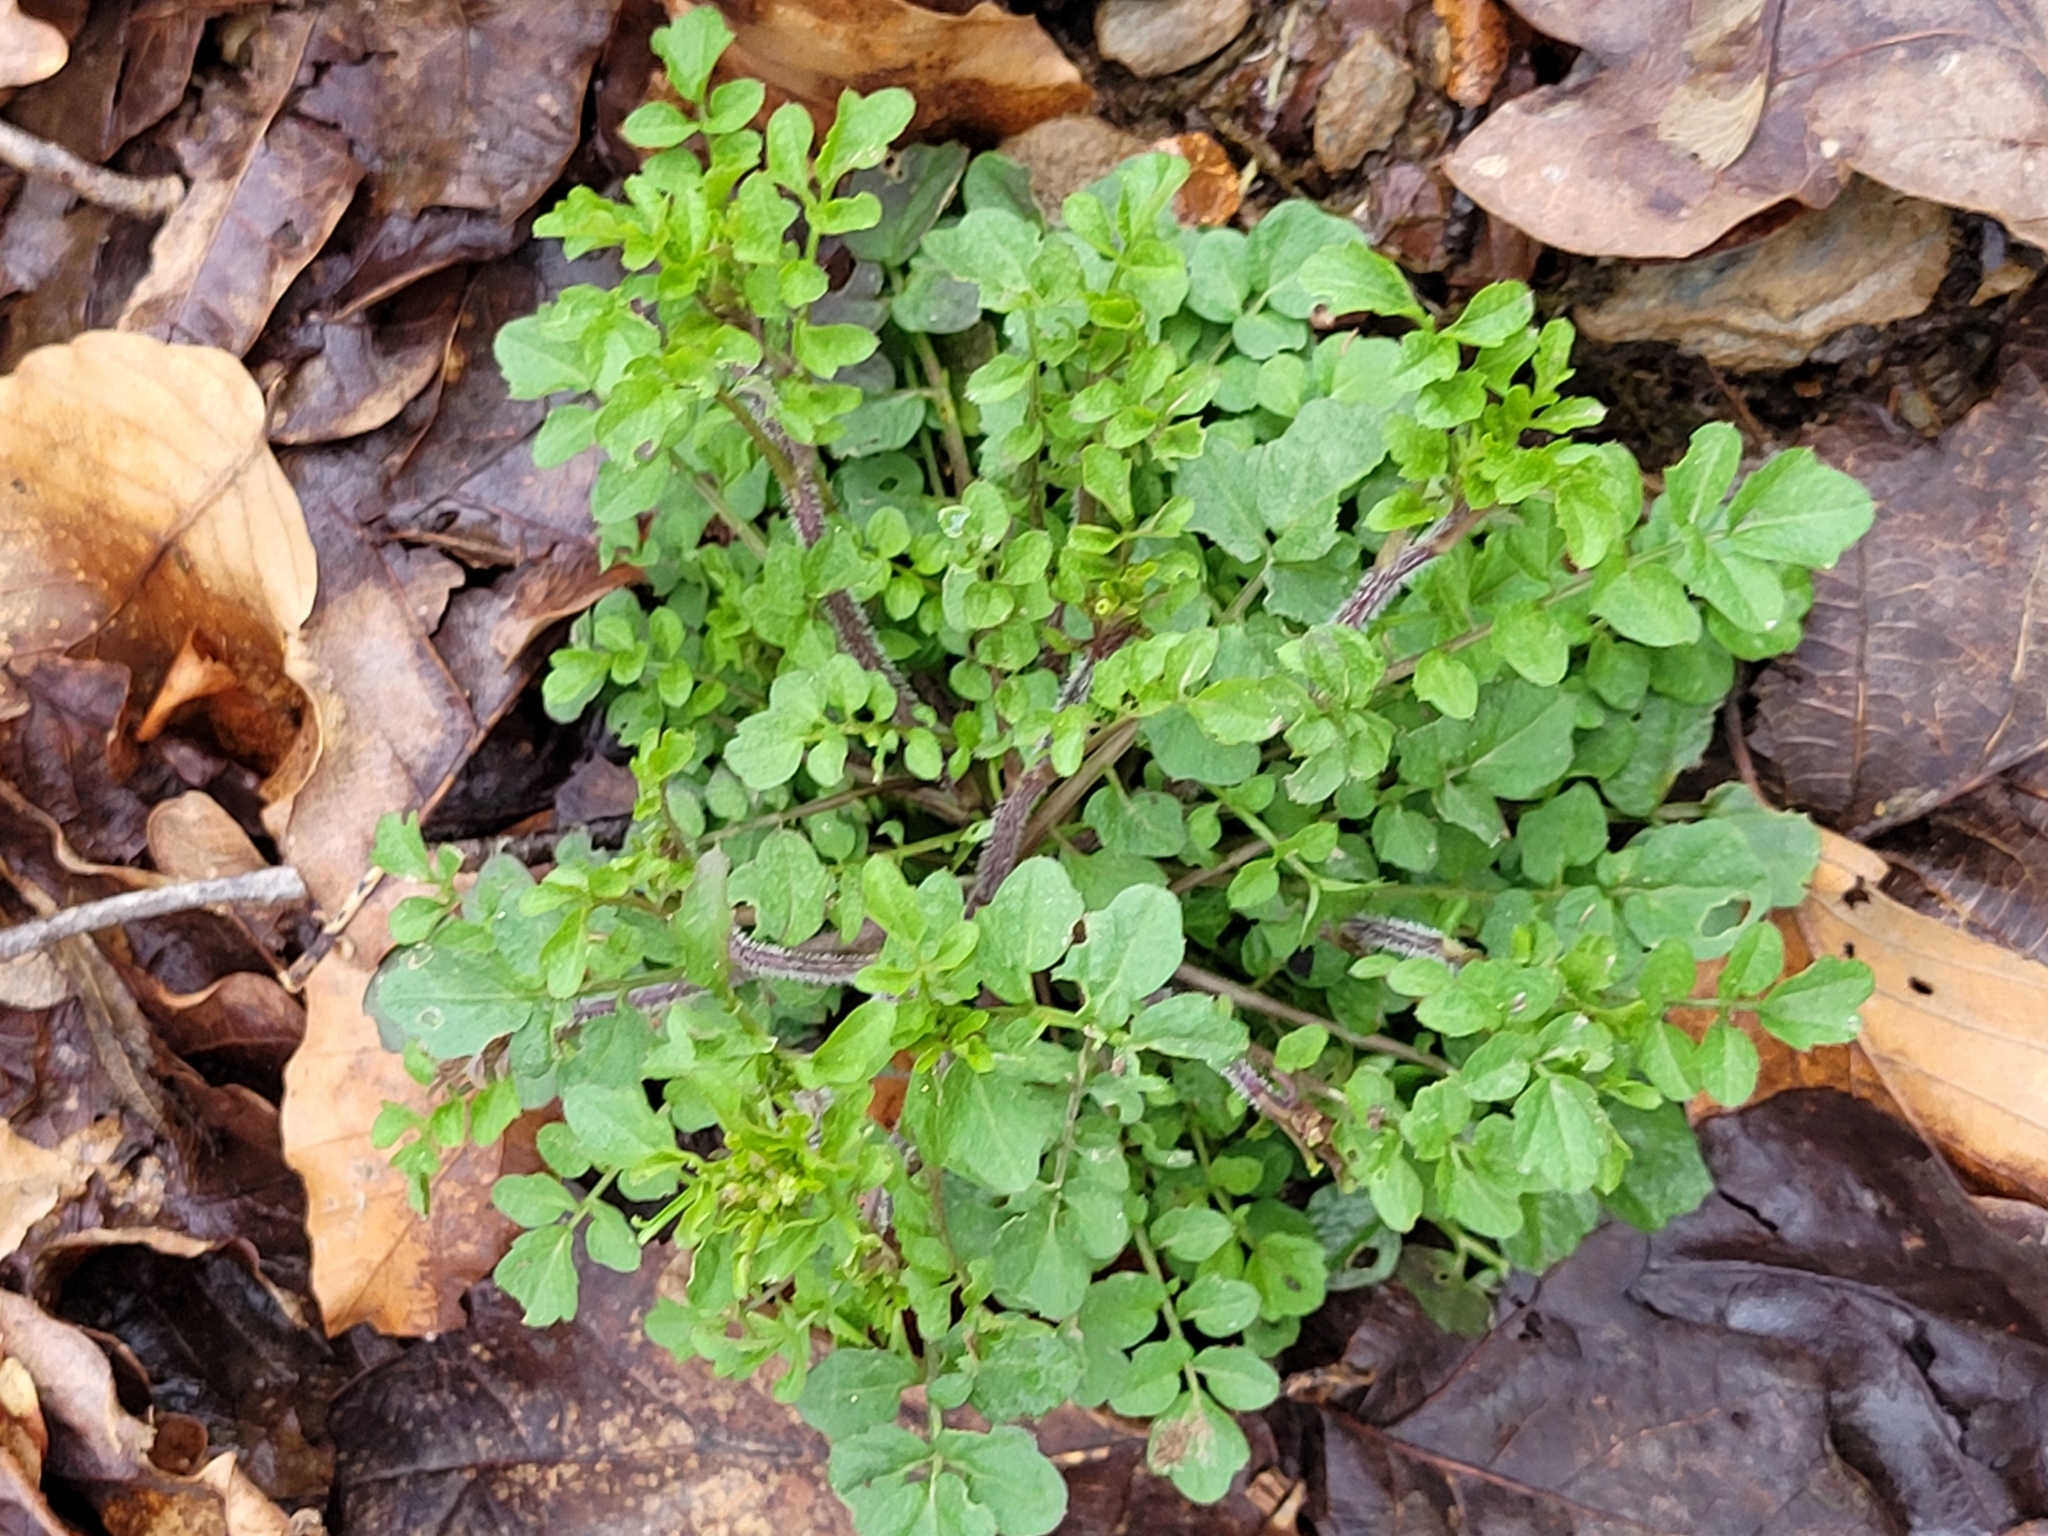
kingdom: Plantae
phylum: Tracheophyta
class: Magnoliopsida
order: Brassicales
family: Brassicaceae
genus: Cardamine
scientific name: Cardamine flexuosa
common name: Woodland bittercress
